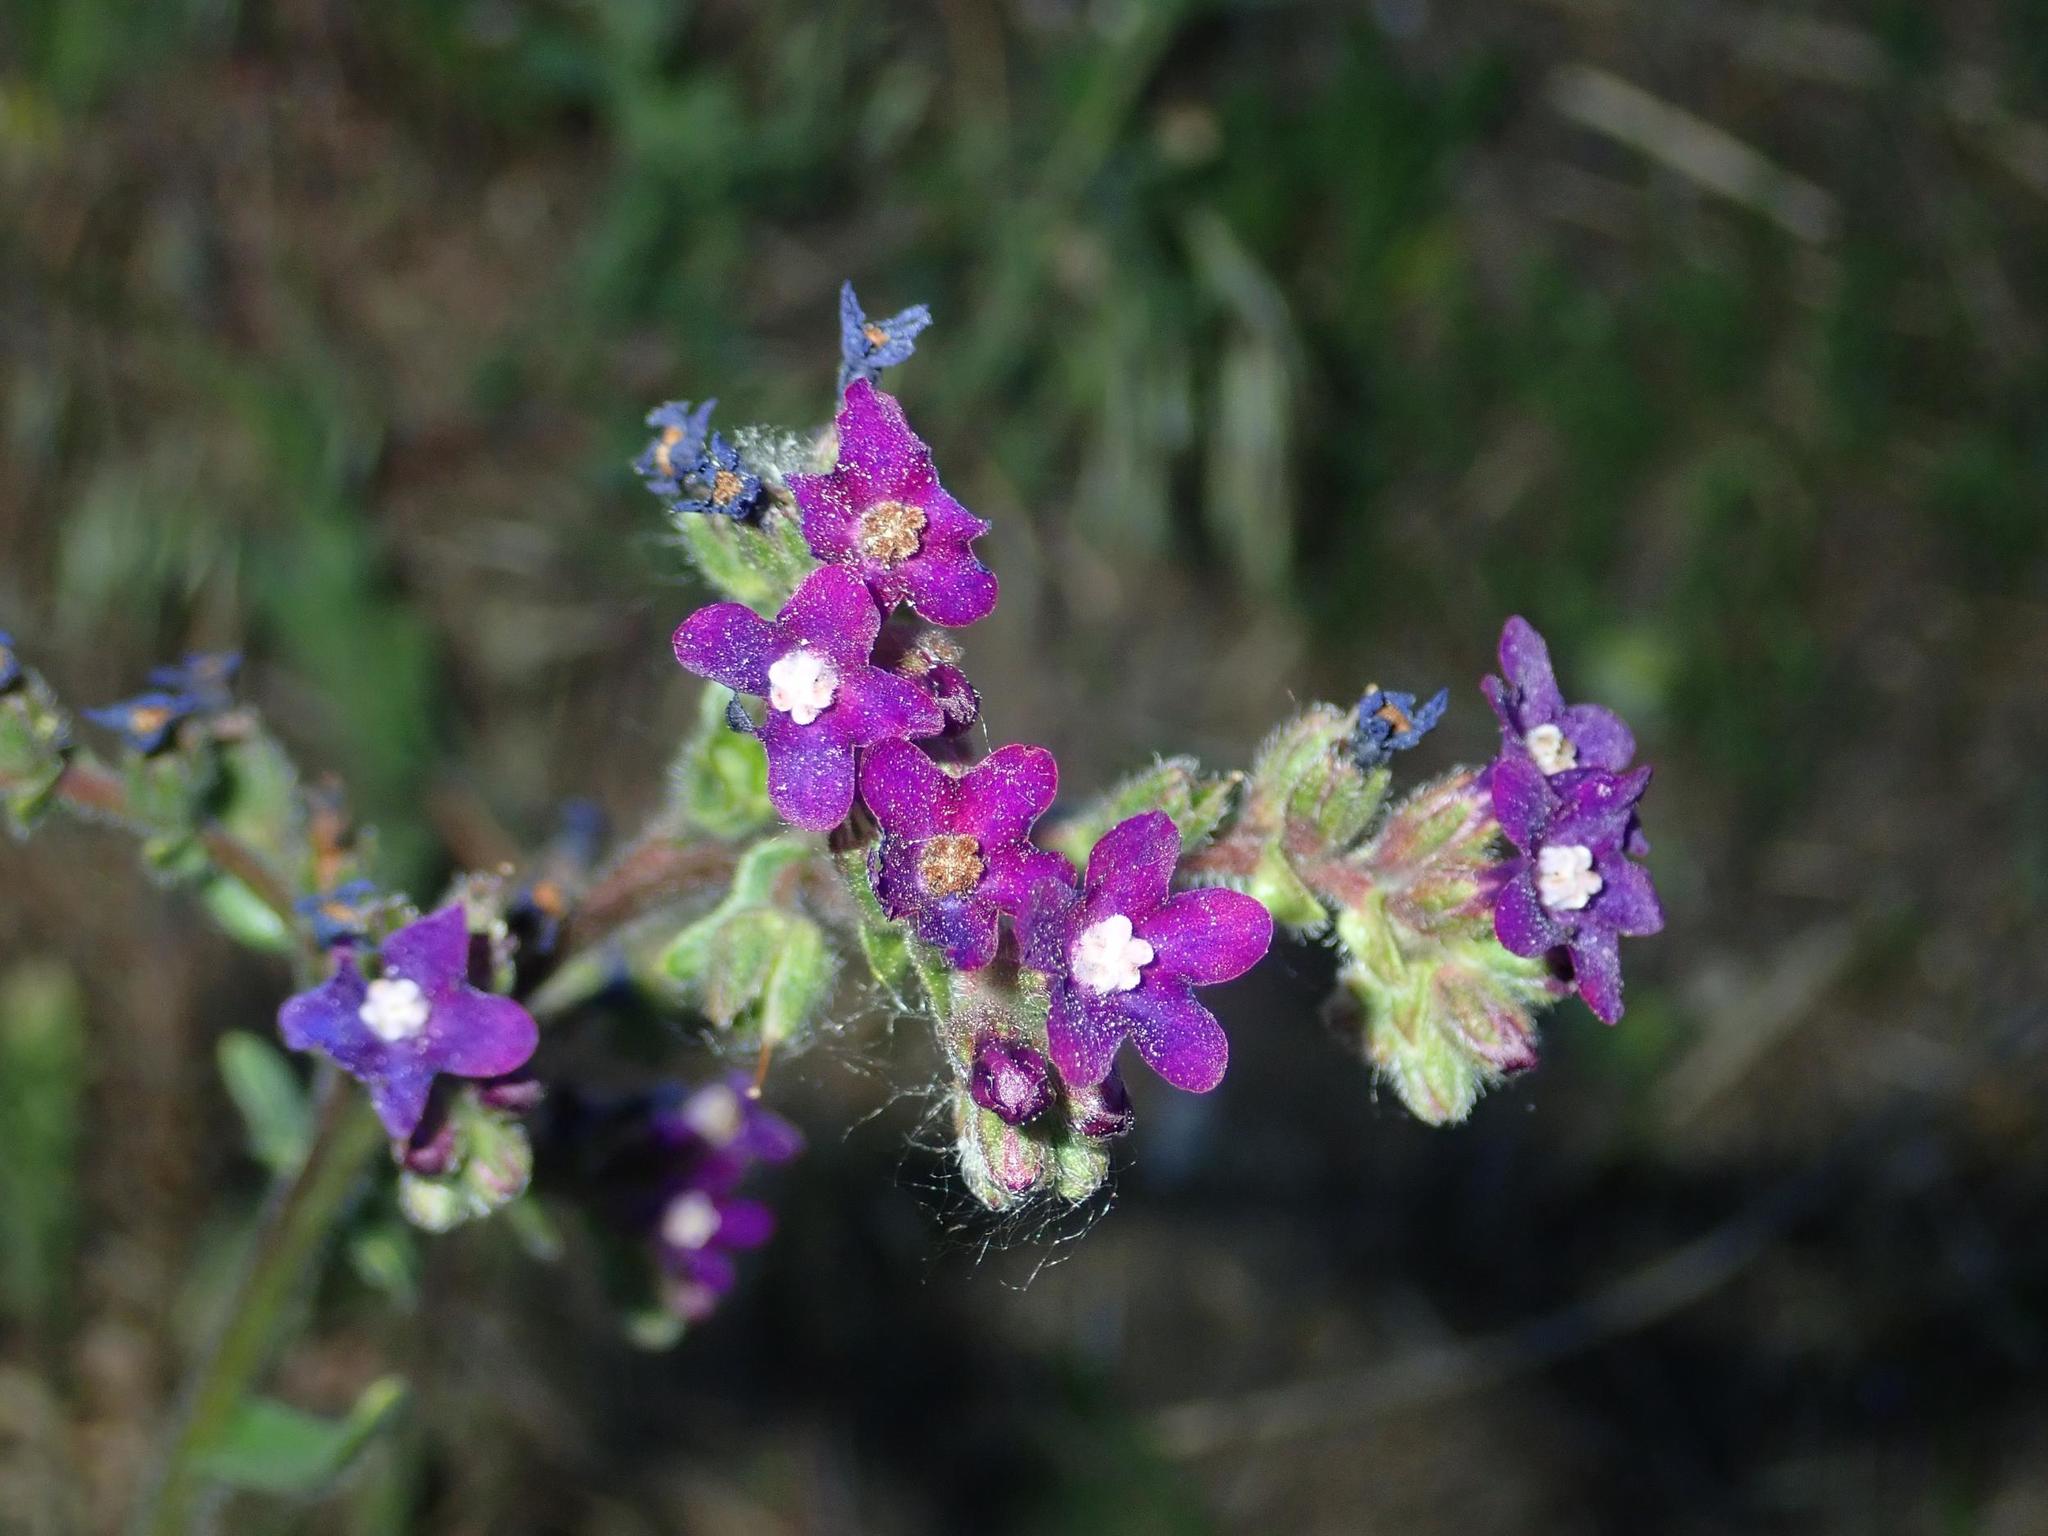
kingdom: Plantae
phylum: Tracheophyta
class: Magnoliopsida
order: Boraginales
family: Boraginaceae
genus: Anchusa
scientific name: Anchusa officinalis
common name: Alkanet
